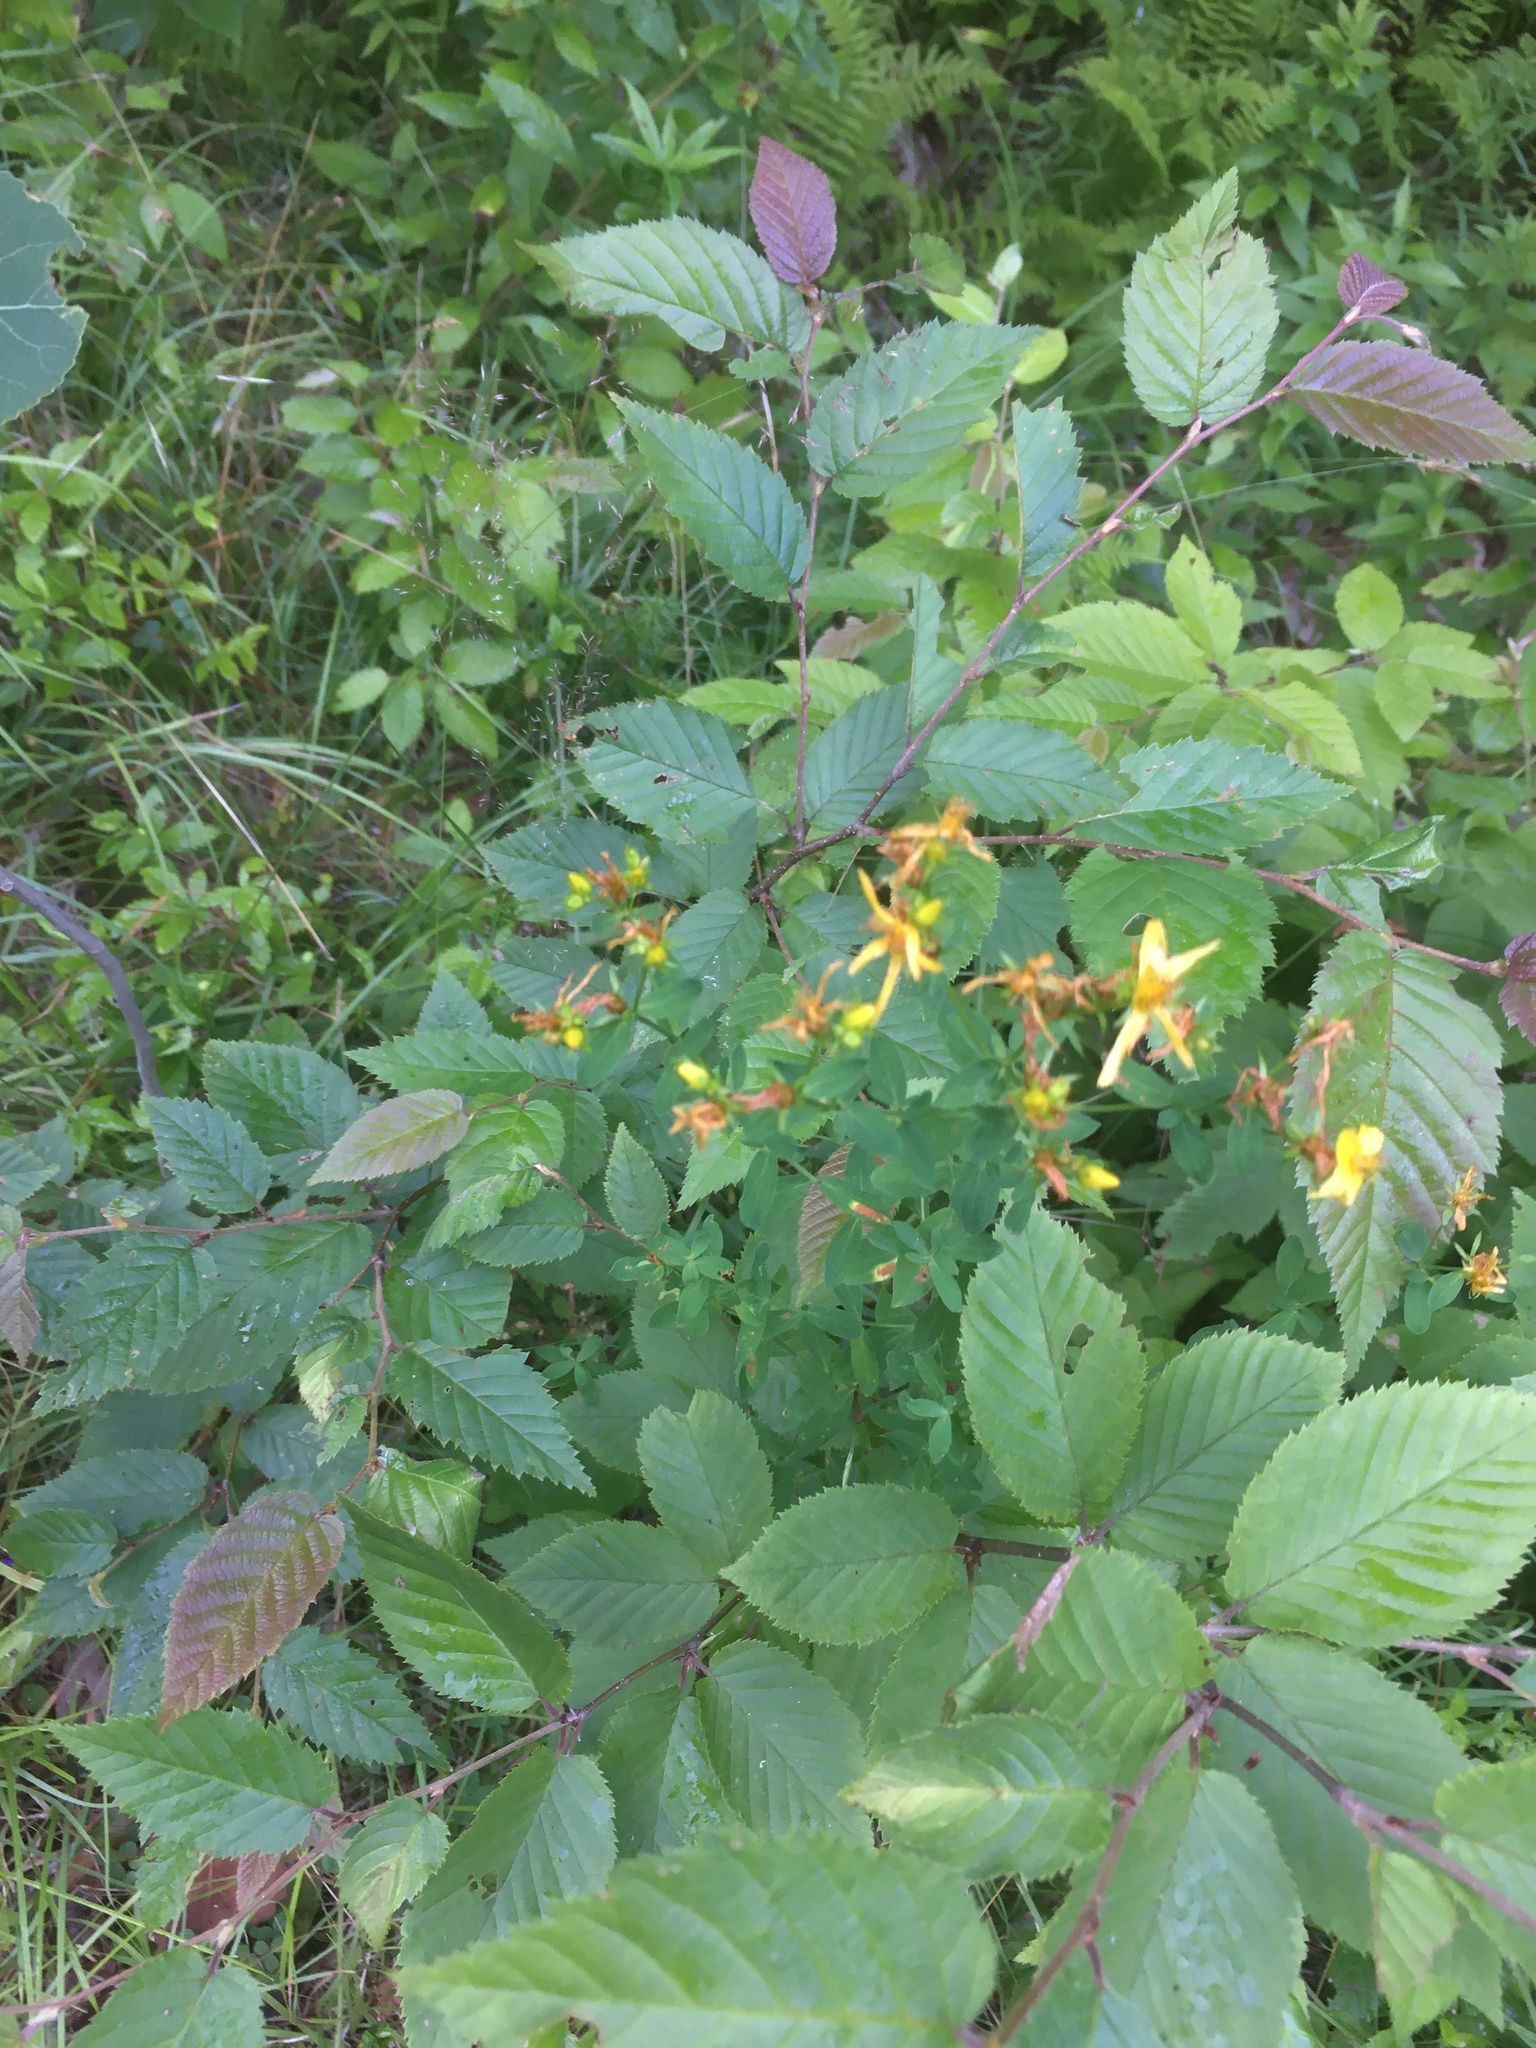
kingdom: Plantae
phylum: Tracheophyta
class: Magnoliopsida
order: Malpighiales
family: Hypericaceae
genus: Hypericum
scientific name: Hypericum perforatum
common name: Common st. johnswort
